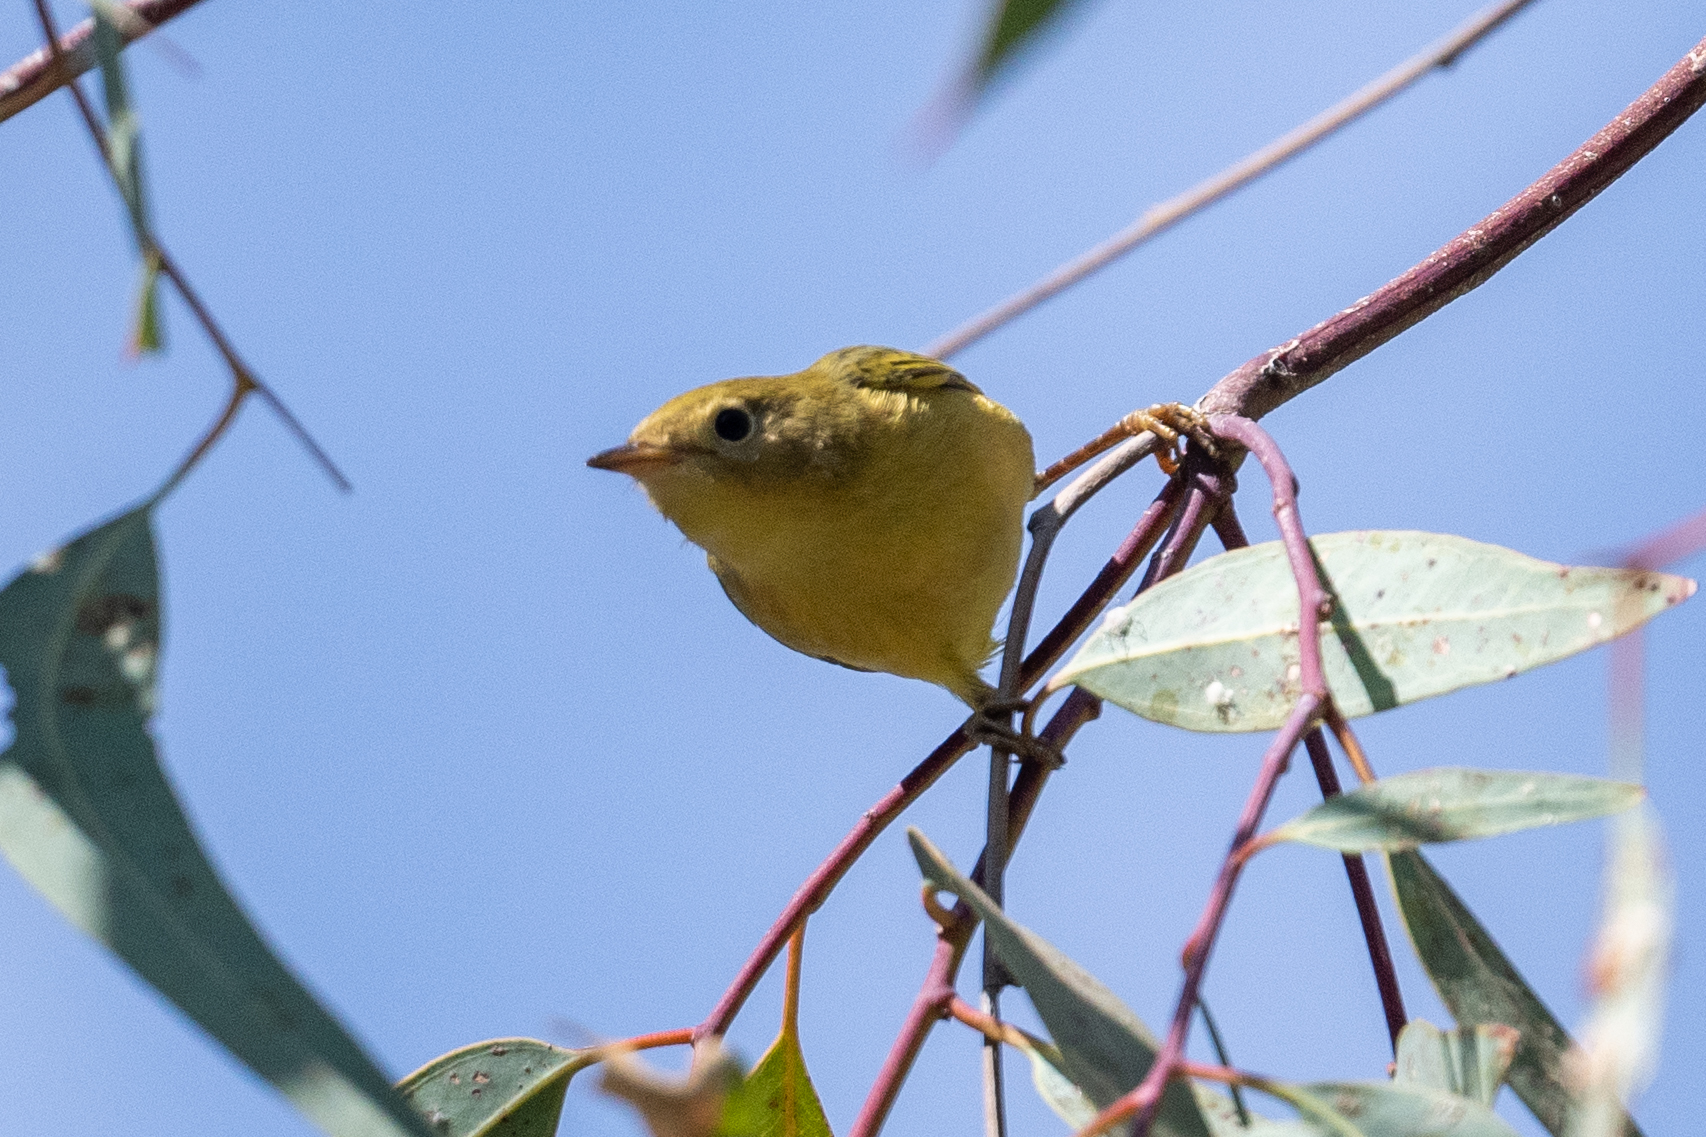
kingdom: Animalia
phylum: Chordata
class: Aves
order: Passeriformes
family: Parulidae
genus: Setophaga
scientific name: Setophaga petechia
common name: Yellow warbler
